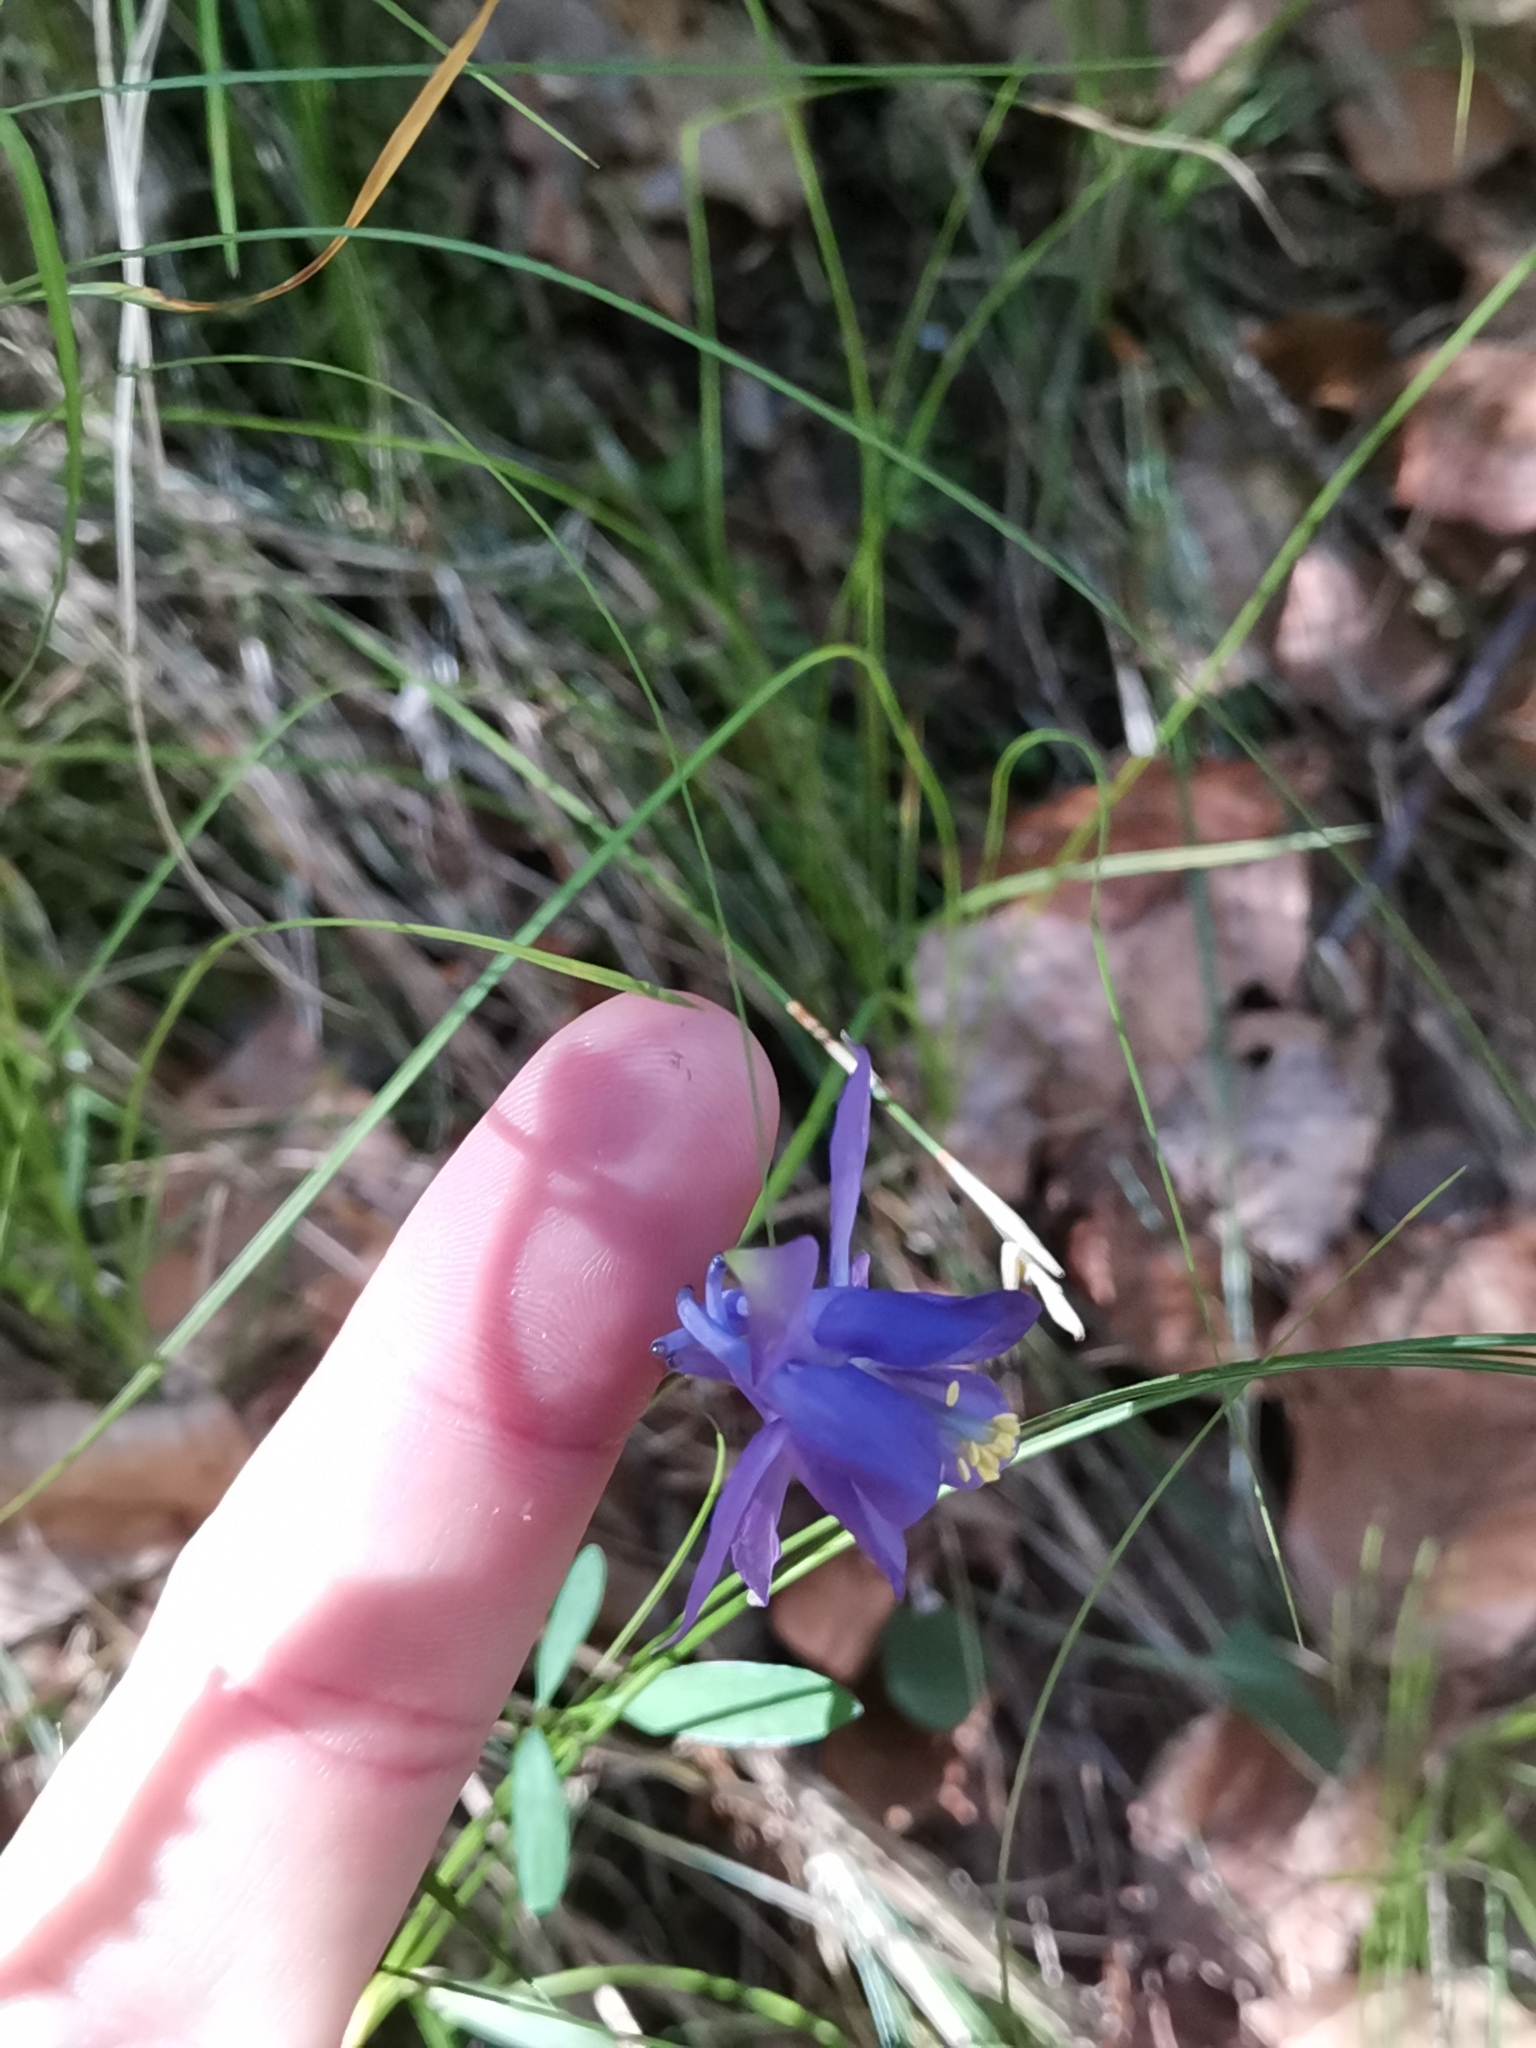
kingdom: Plantae
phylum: Tracheophyta
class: Magnoliopsida
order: Ranunculales
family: Ranunculaceae
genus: Aquilegia
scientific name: Aquilegia einseleana
